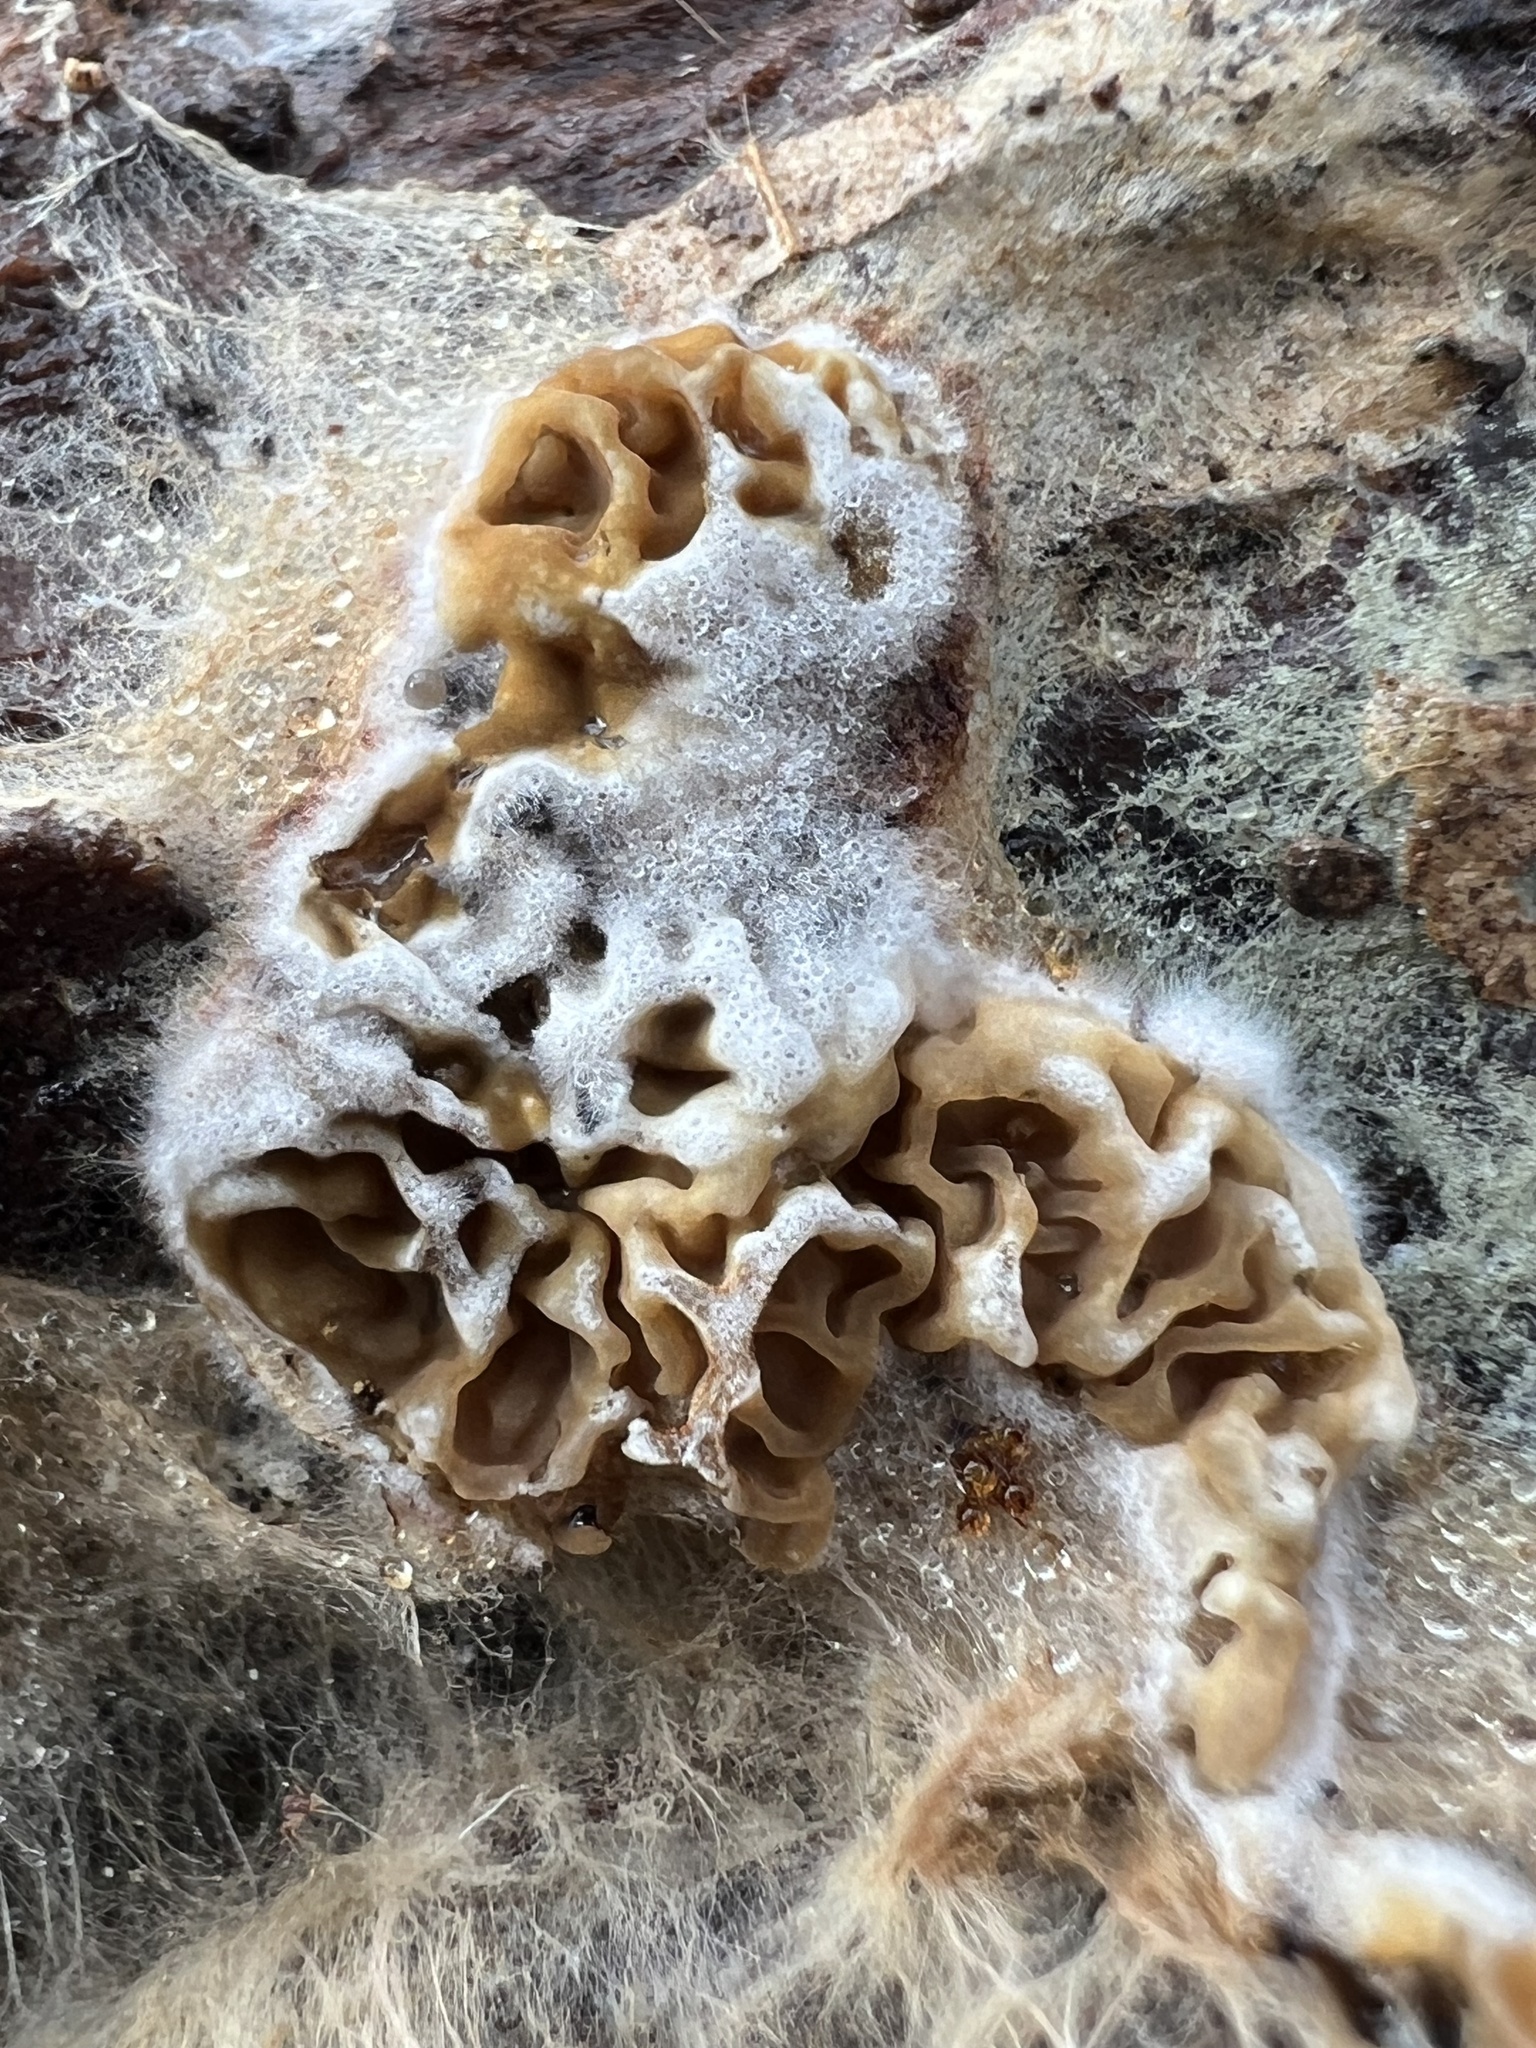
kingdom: Fungi
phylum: Basidiomycota
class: Agaricomycetes
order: Boletales
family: Serpulaceae
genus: Serpula
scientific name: Serpula himantioides
